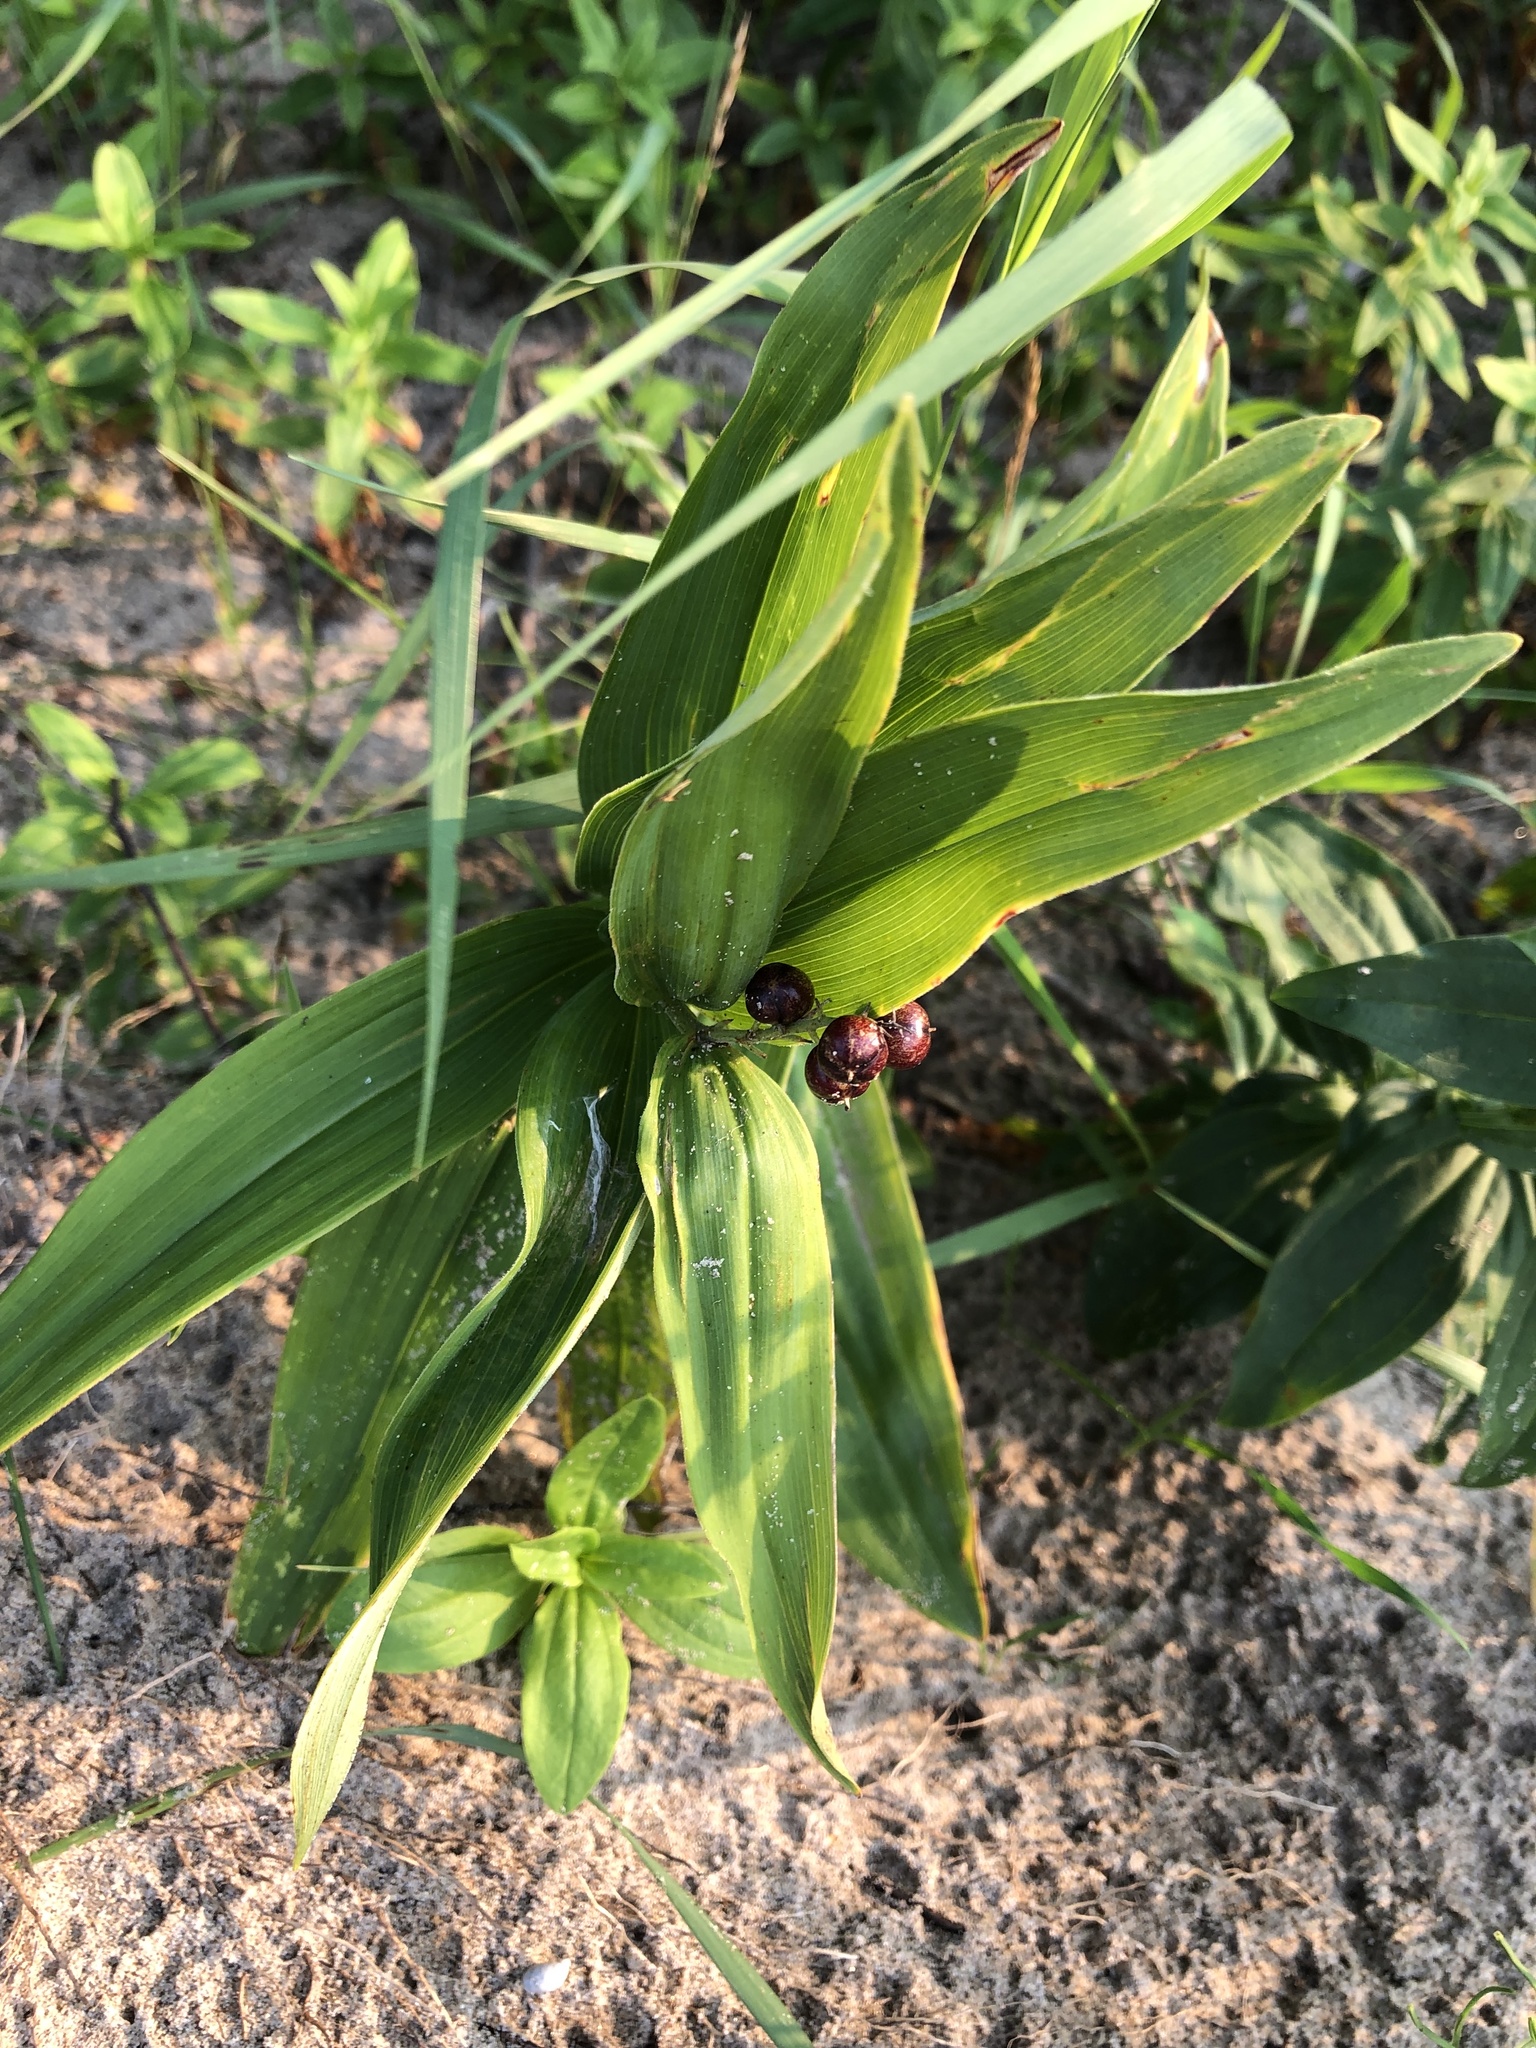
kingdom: Plantae
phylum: Tracheophyta
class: Liliopsida
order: Asparagales
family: Asparagaceae
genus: Maianthemum
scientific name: Maianthemum stellatum
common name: Little false solomon's seal
